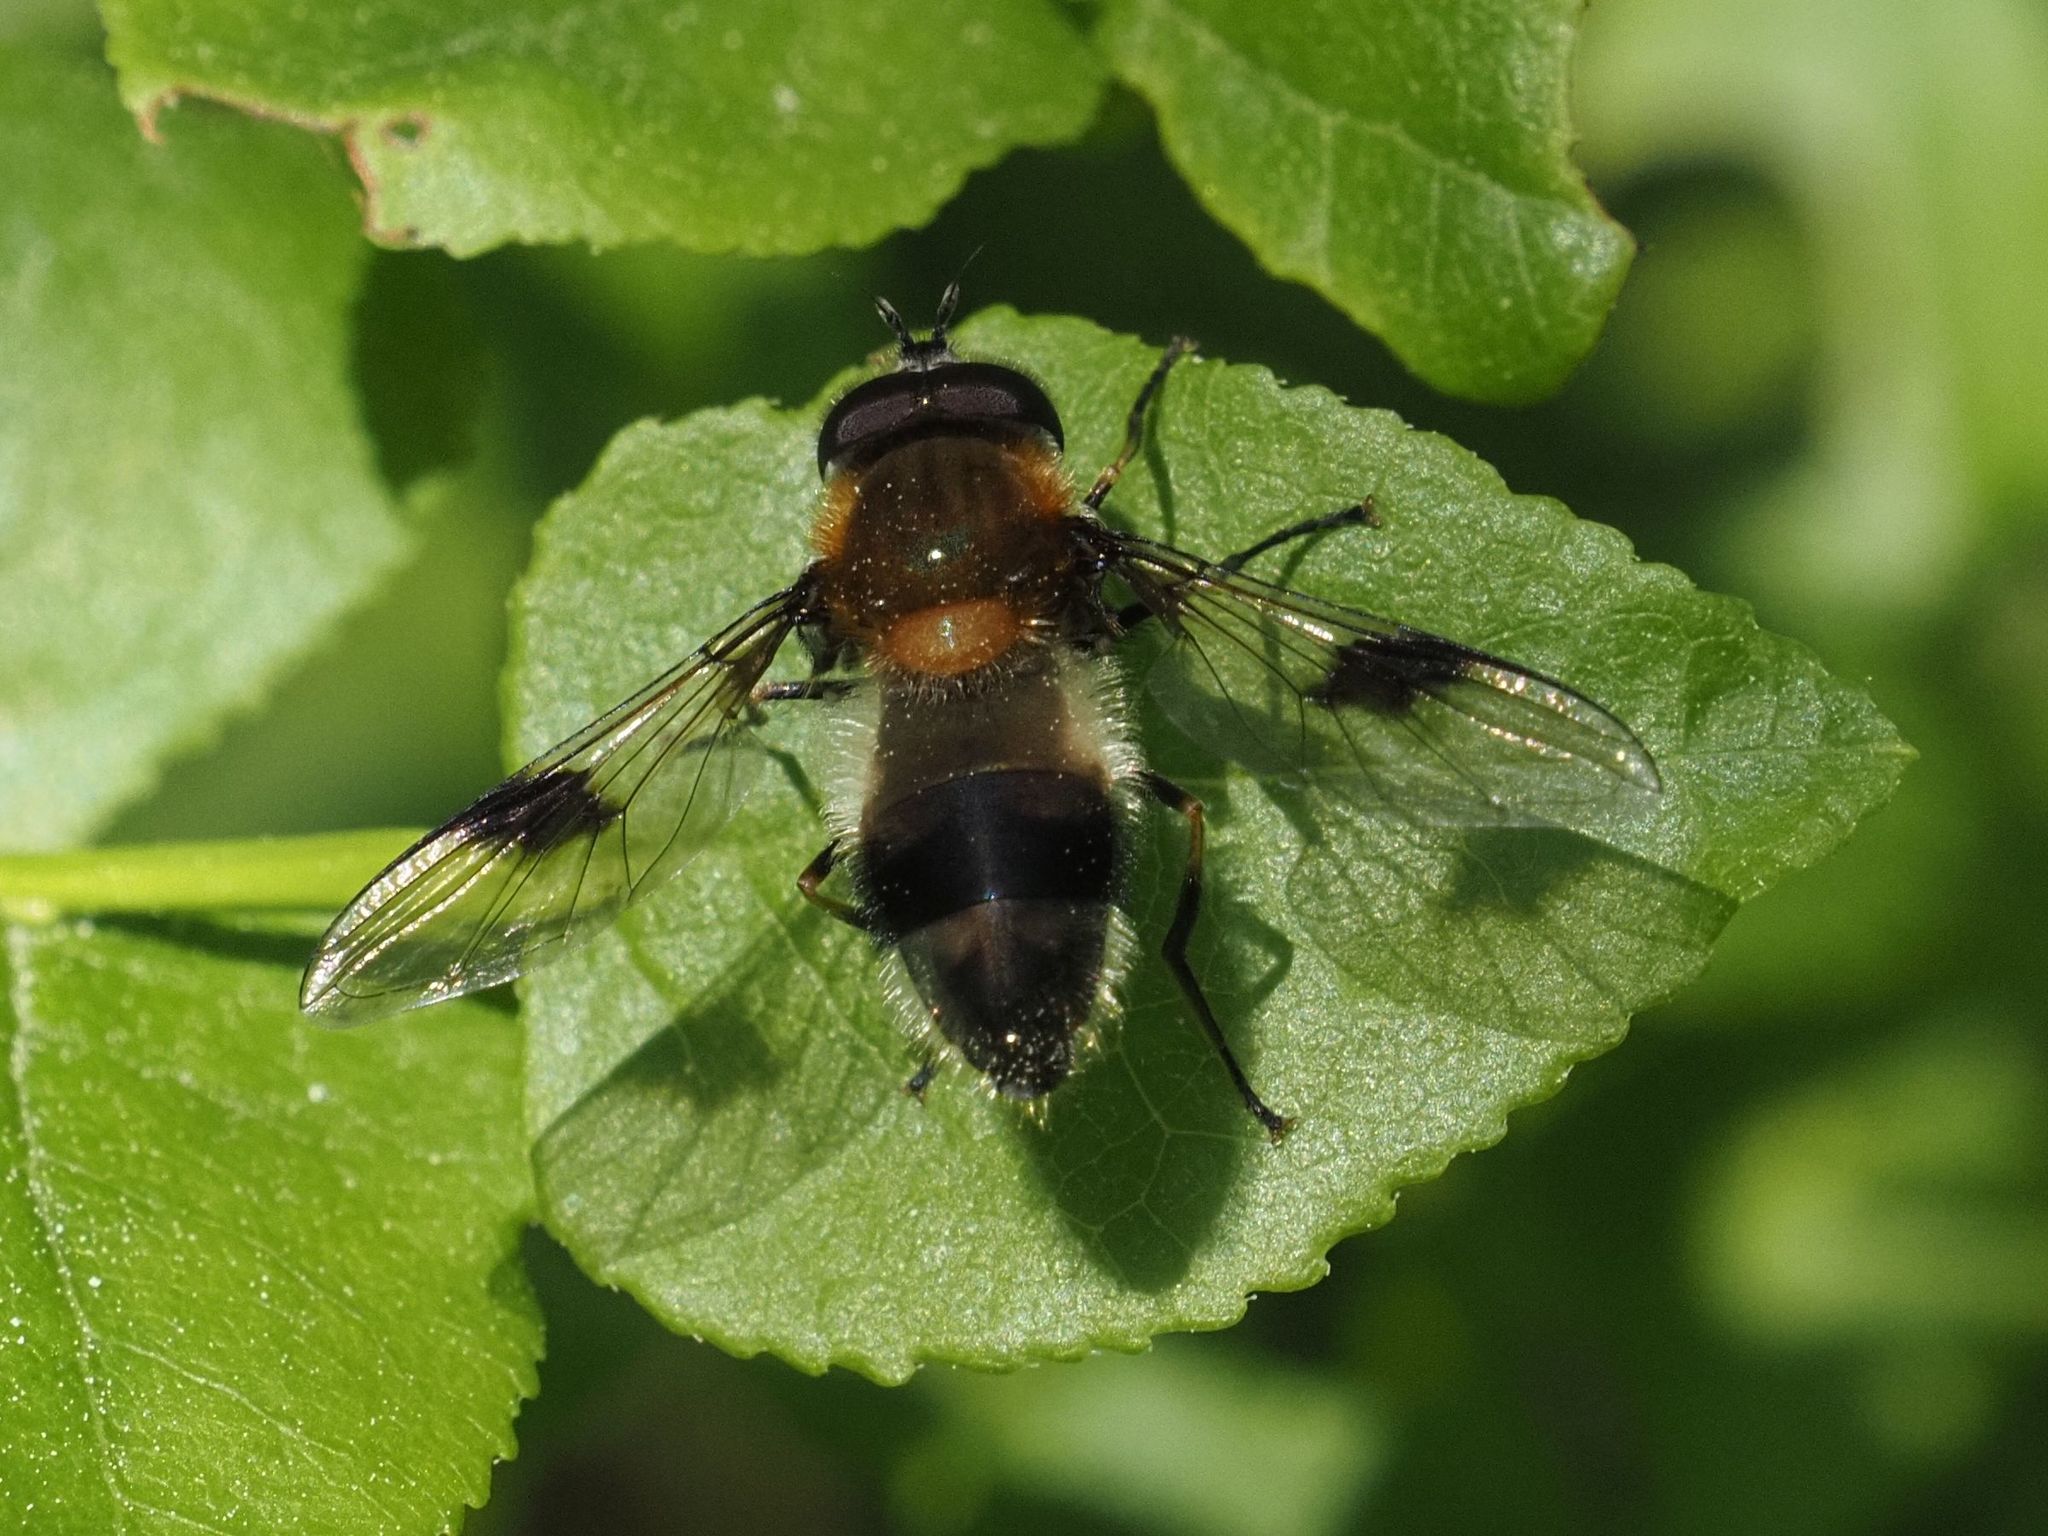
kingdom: Animalia
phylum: Arthropoda
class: Insecta
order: Diptera
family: Syrphidae
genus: Leucozona
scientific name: Leucozona lucorum
